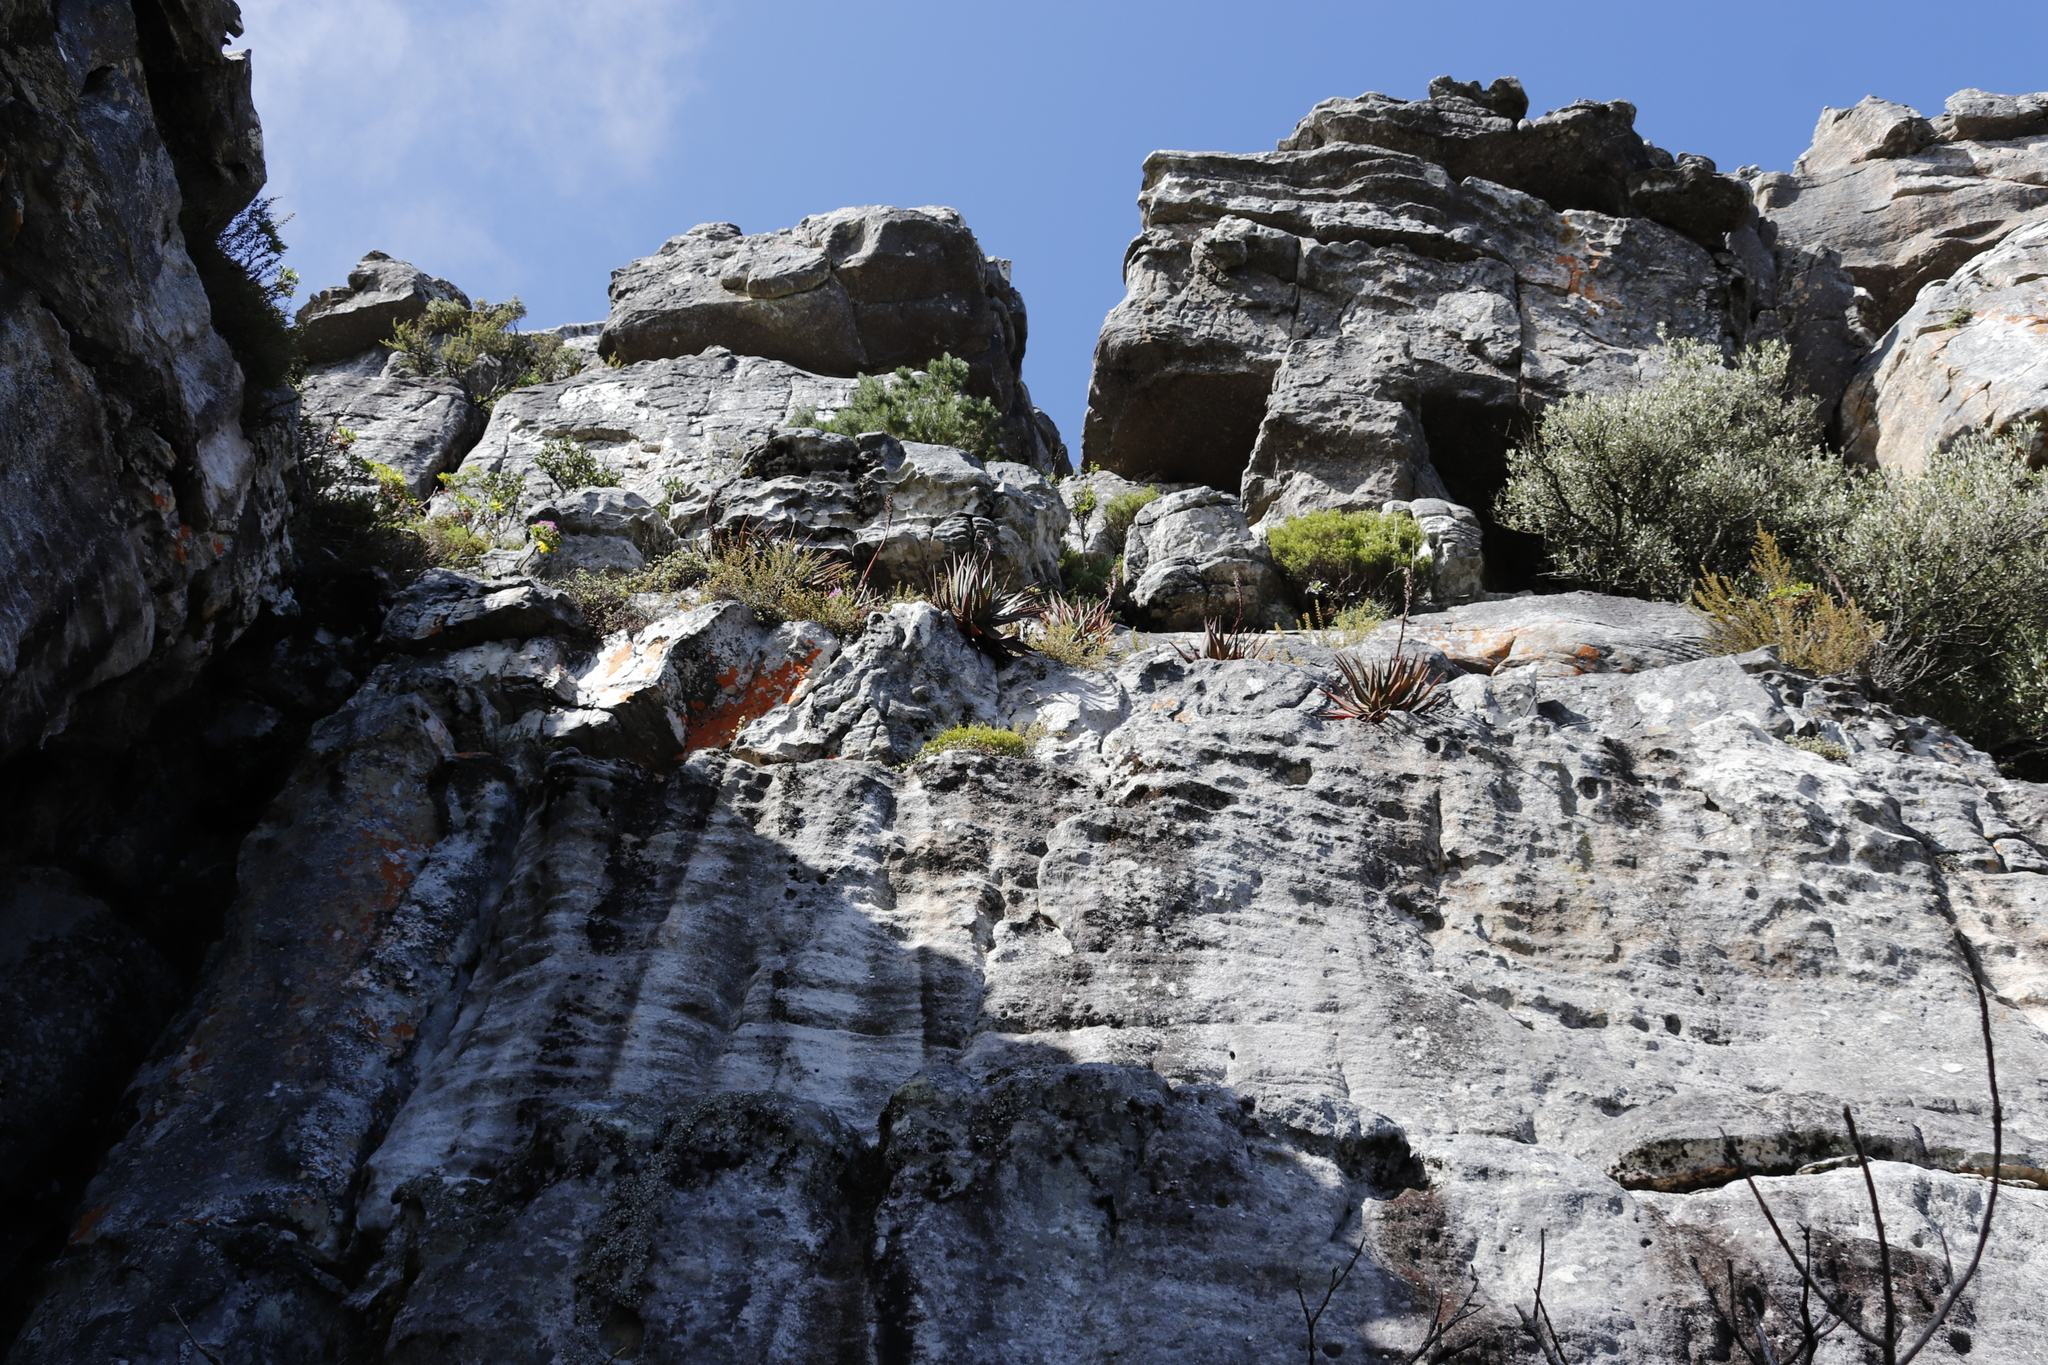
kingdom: Plantae
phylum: Tracheophyta
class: Liliopsida
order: Asparagales
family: Asphodelaceae
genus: Aloe
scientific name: Aloe succotrina
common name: Bombay aloe
